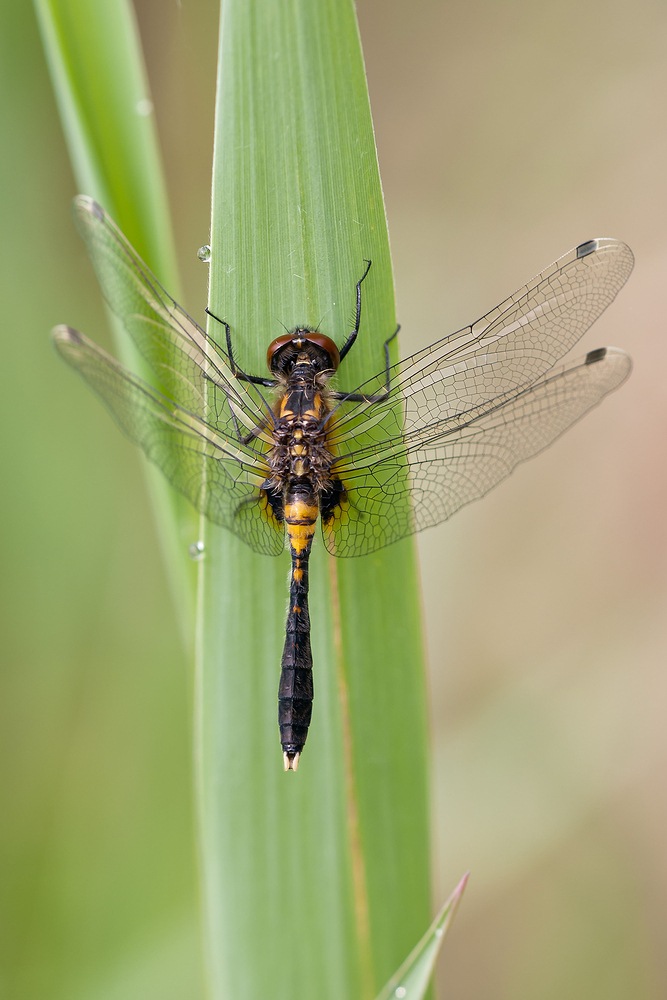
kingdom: Animalia
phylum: Arthropoda
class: Insecta
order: Odonata
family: Libellulidae
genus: Leucorrhinia
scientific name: Leucorrhinia caudalis
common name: Lilypad whiteface
